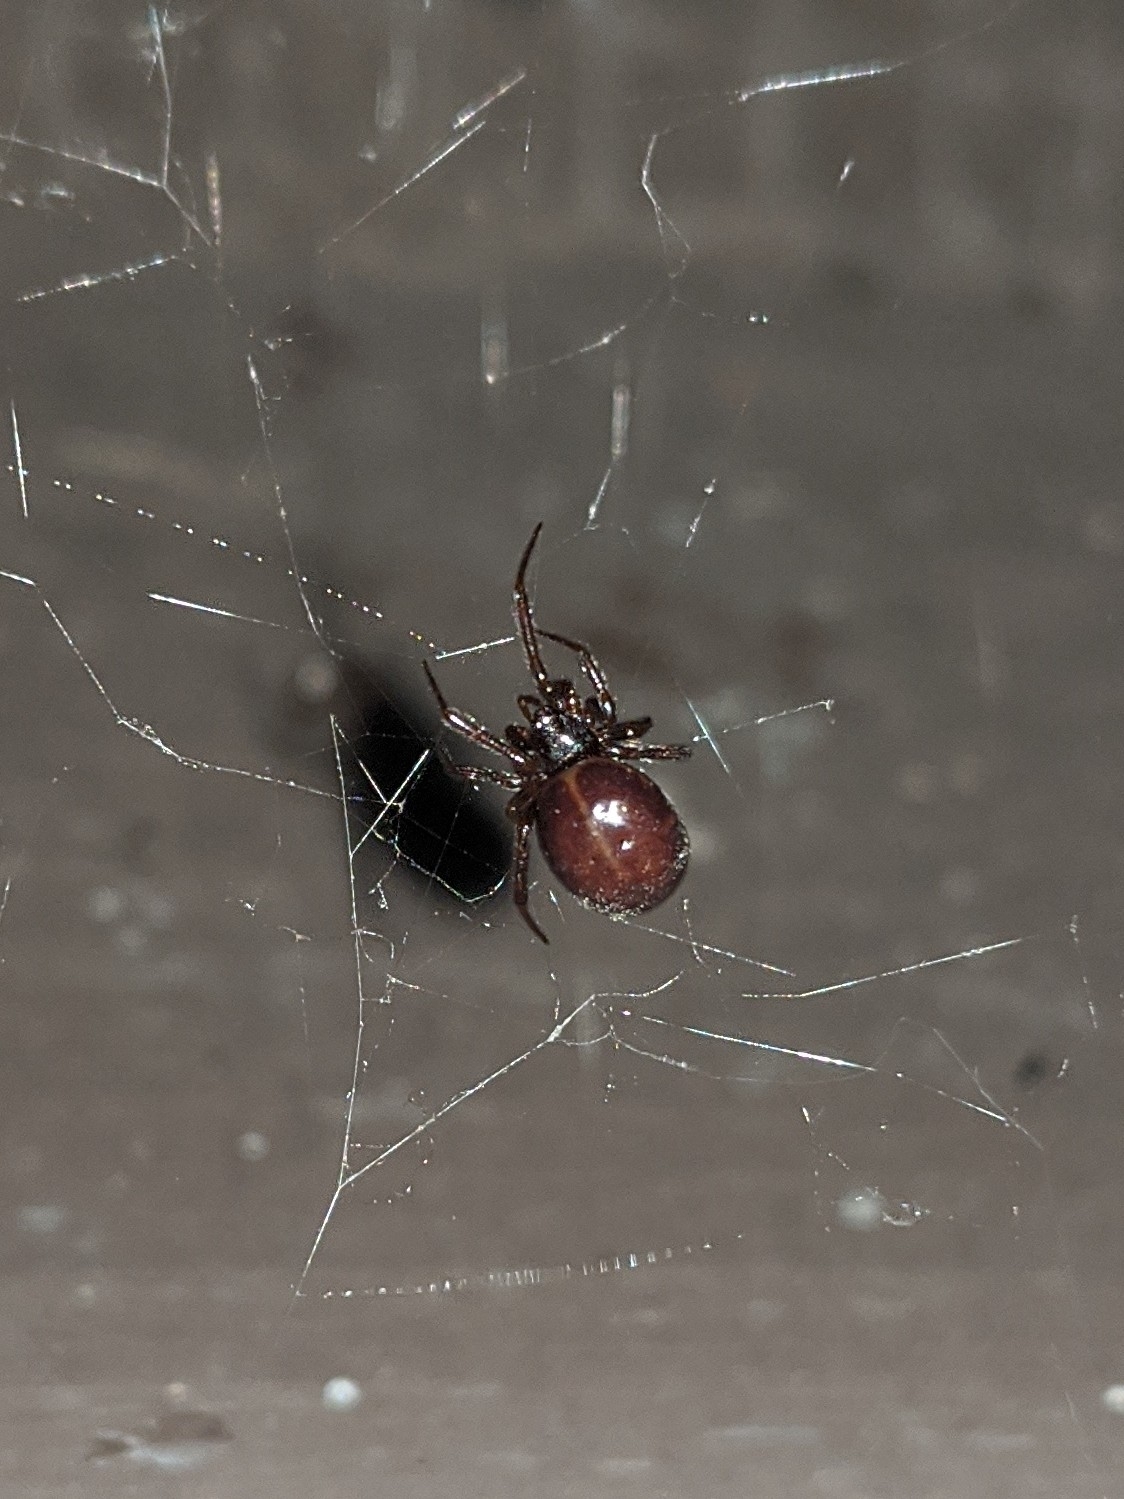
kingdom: Animalia
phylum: Arthropoda
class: Arachnida
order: Araneae
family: Theridiidae
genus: Steatoda
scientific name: Steatoda borealis
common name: Boreal combfoot
